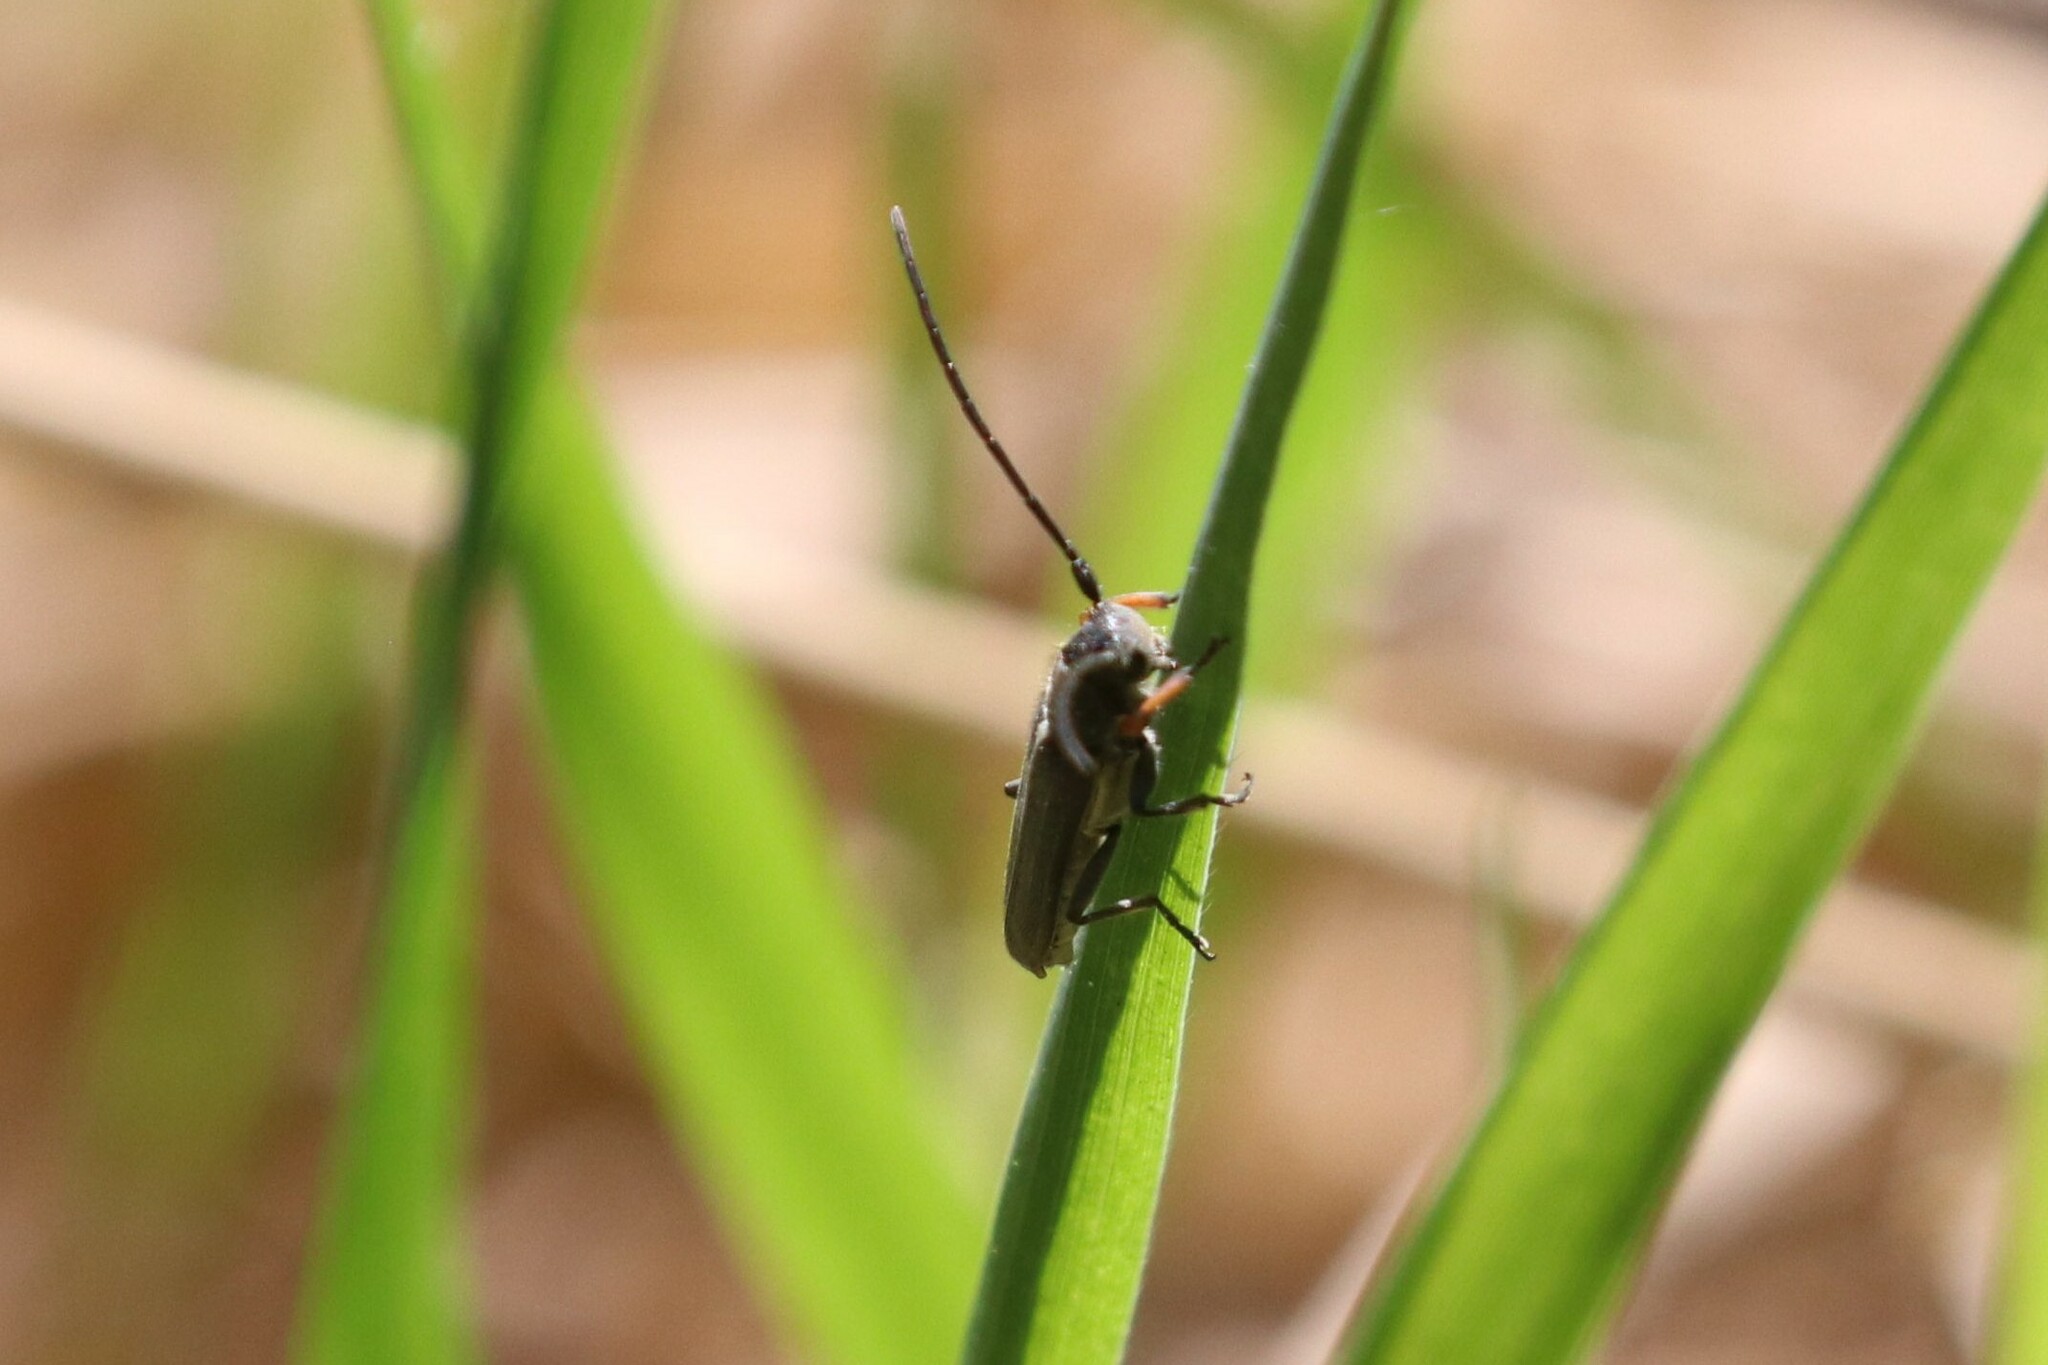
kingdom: Animalia
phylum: Arthropoda
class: Insecta
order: Coleoptera
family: Cerambycidae
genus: Phytoecia
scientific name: Phytoecia cylindrica
